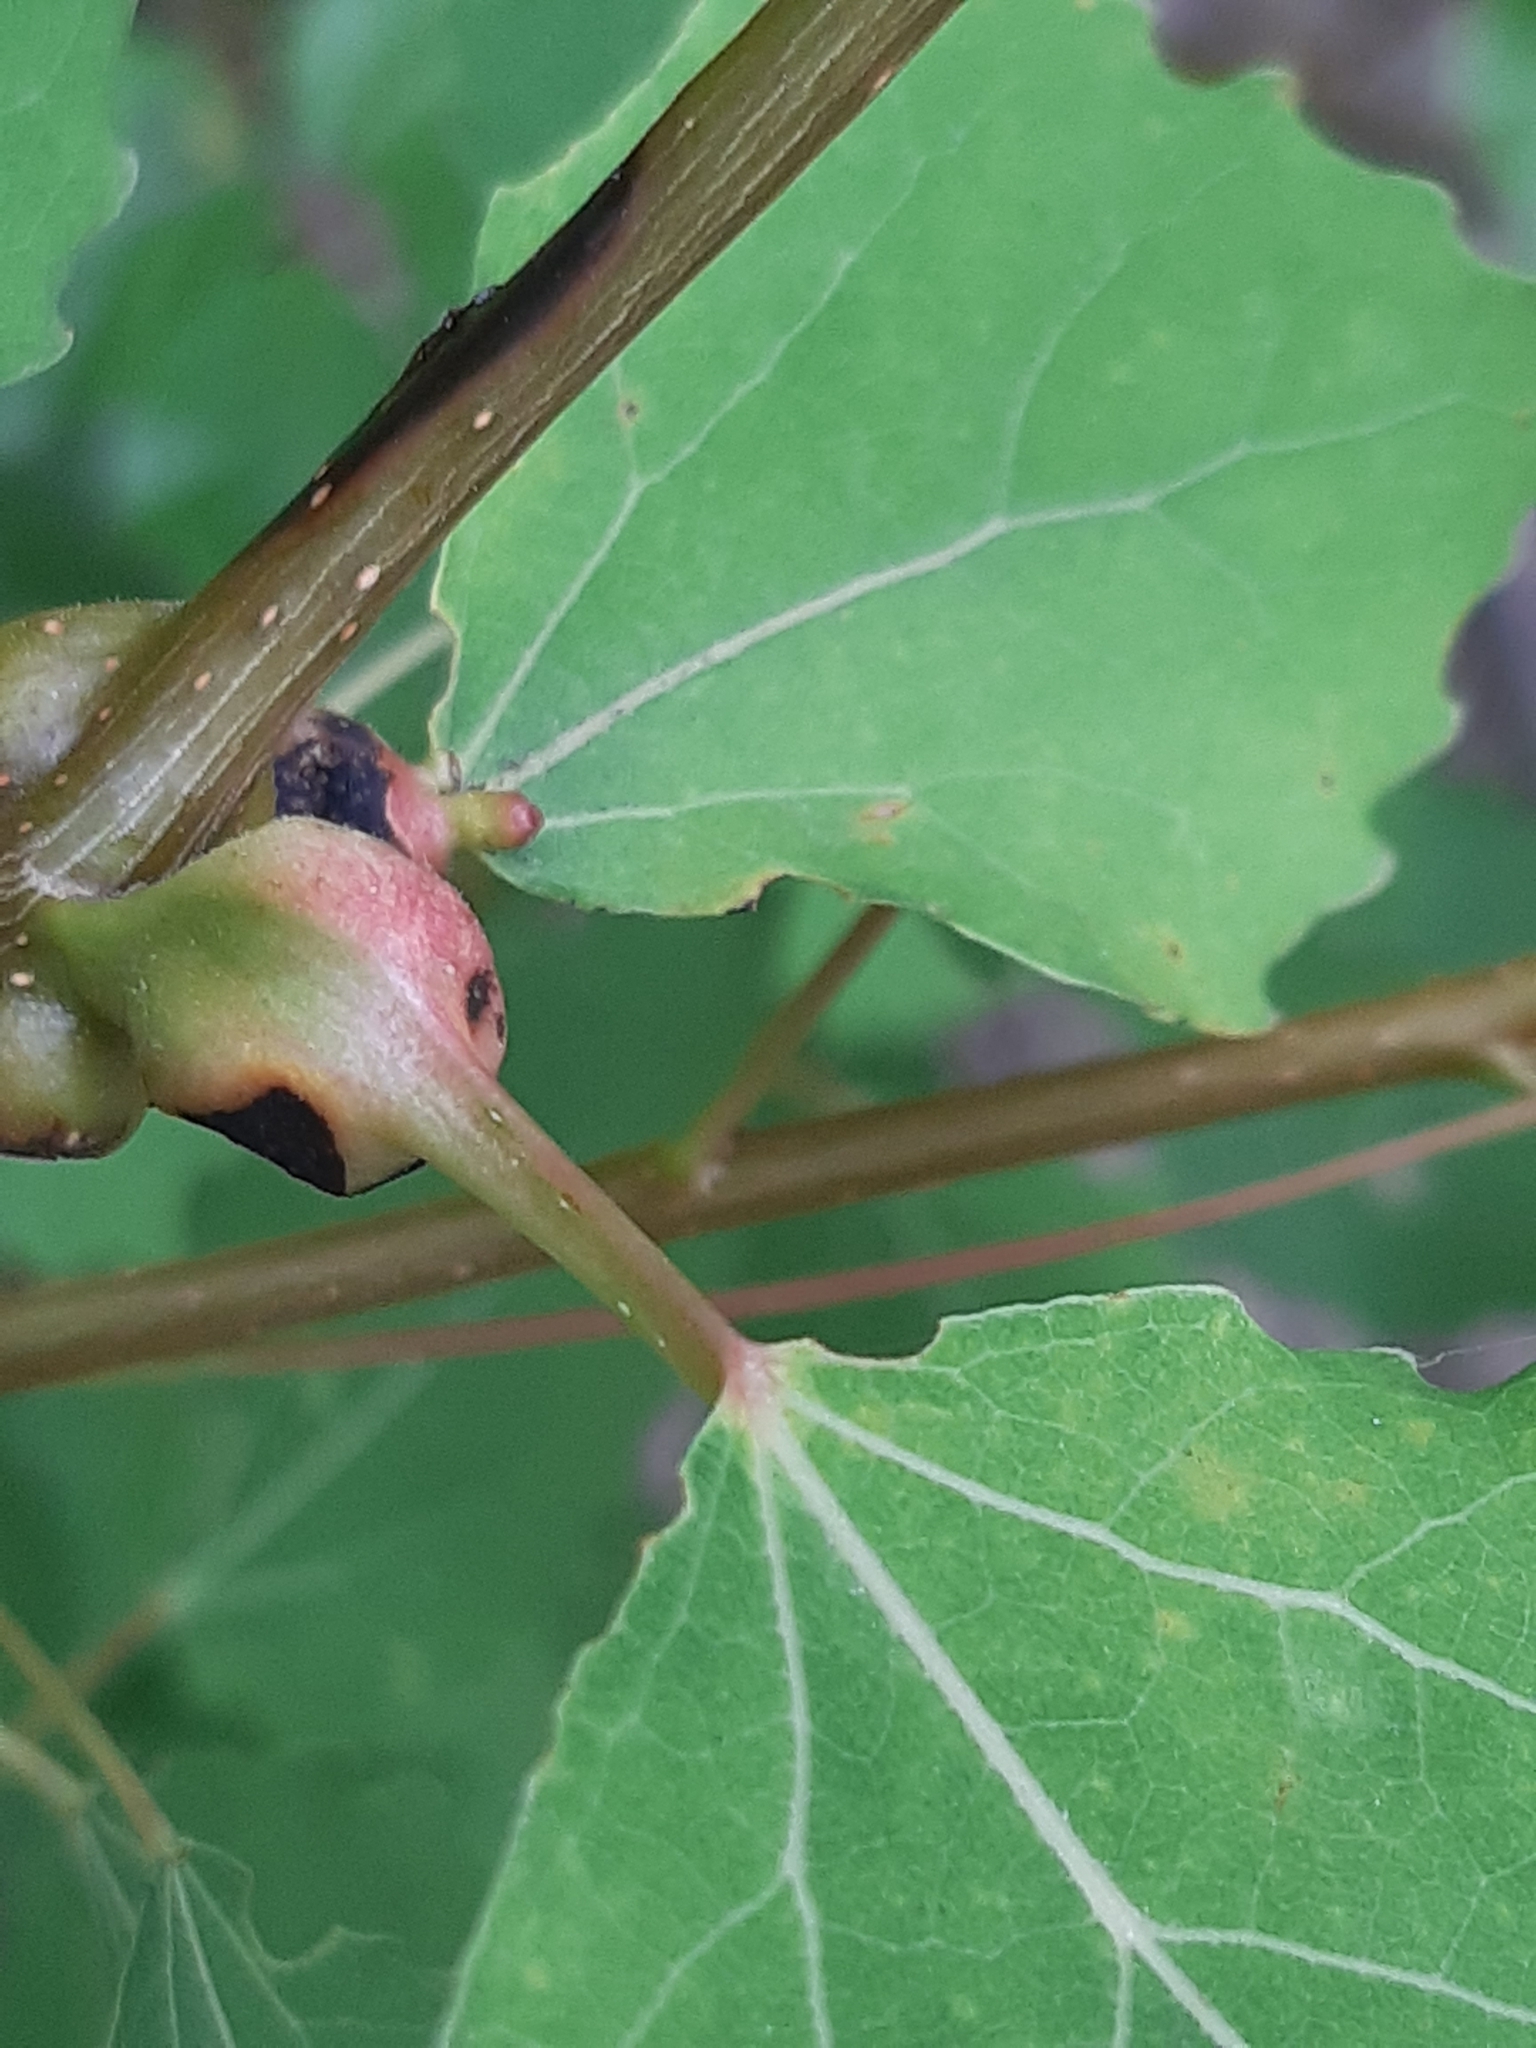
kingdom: Animalia
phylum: Arthropoda
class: Insecta
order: Diptera
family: Cecidomyiidae
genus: Contarinia
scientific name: Contarinia petioli
